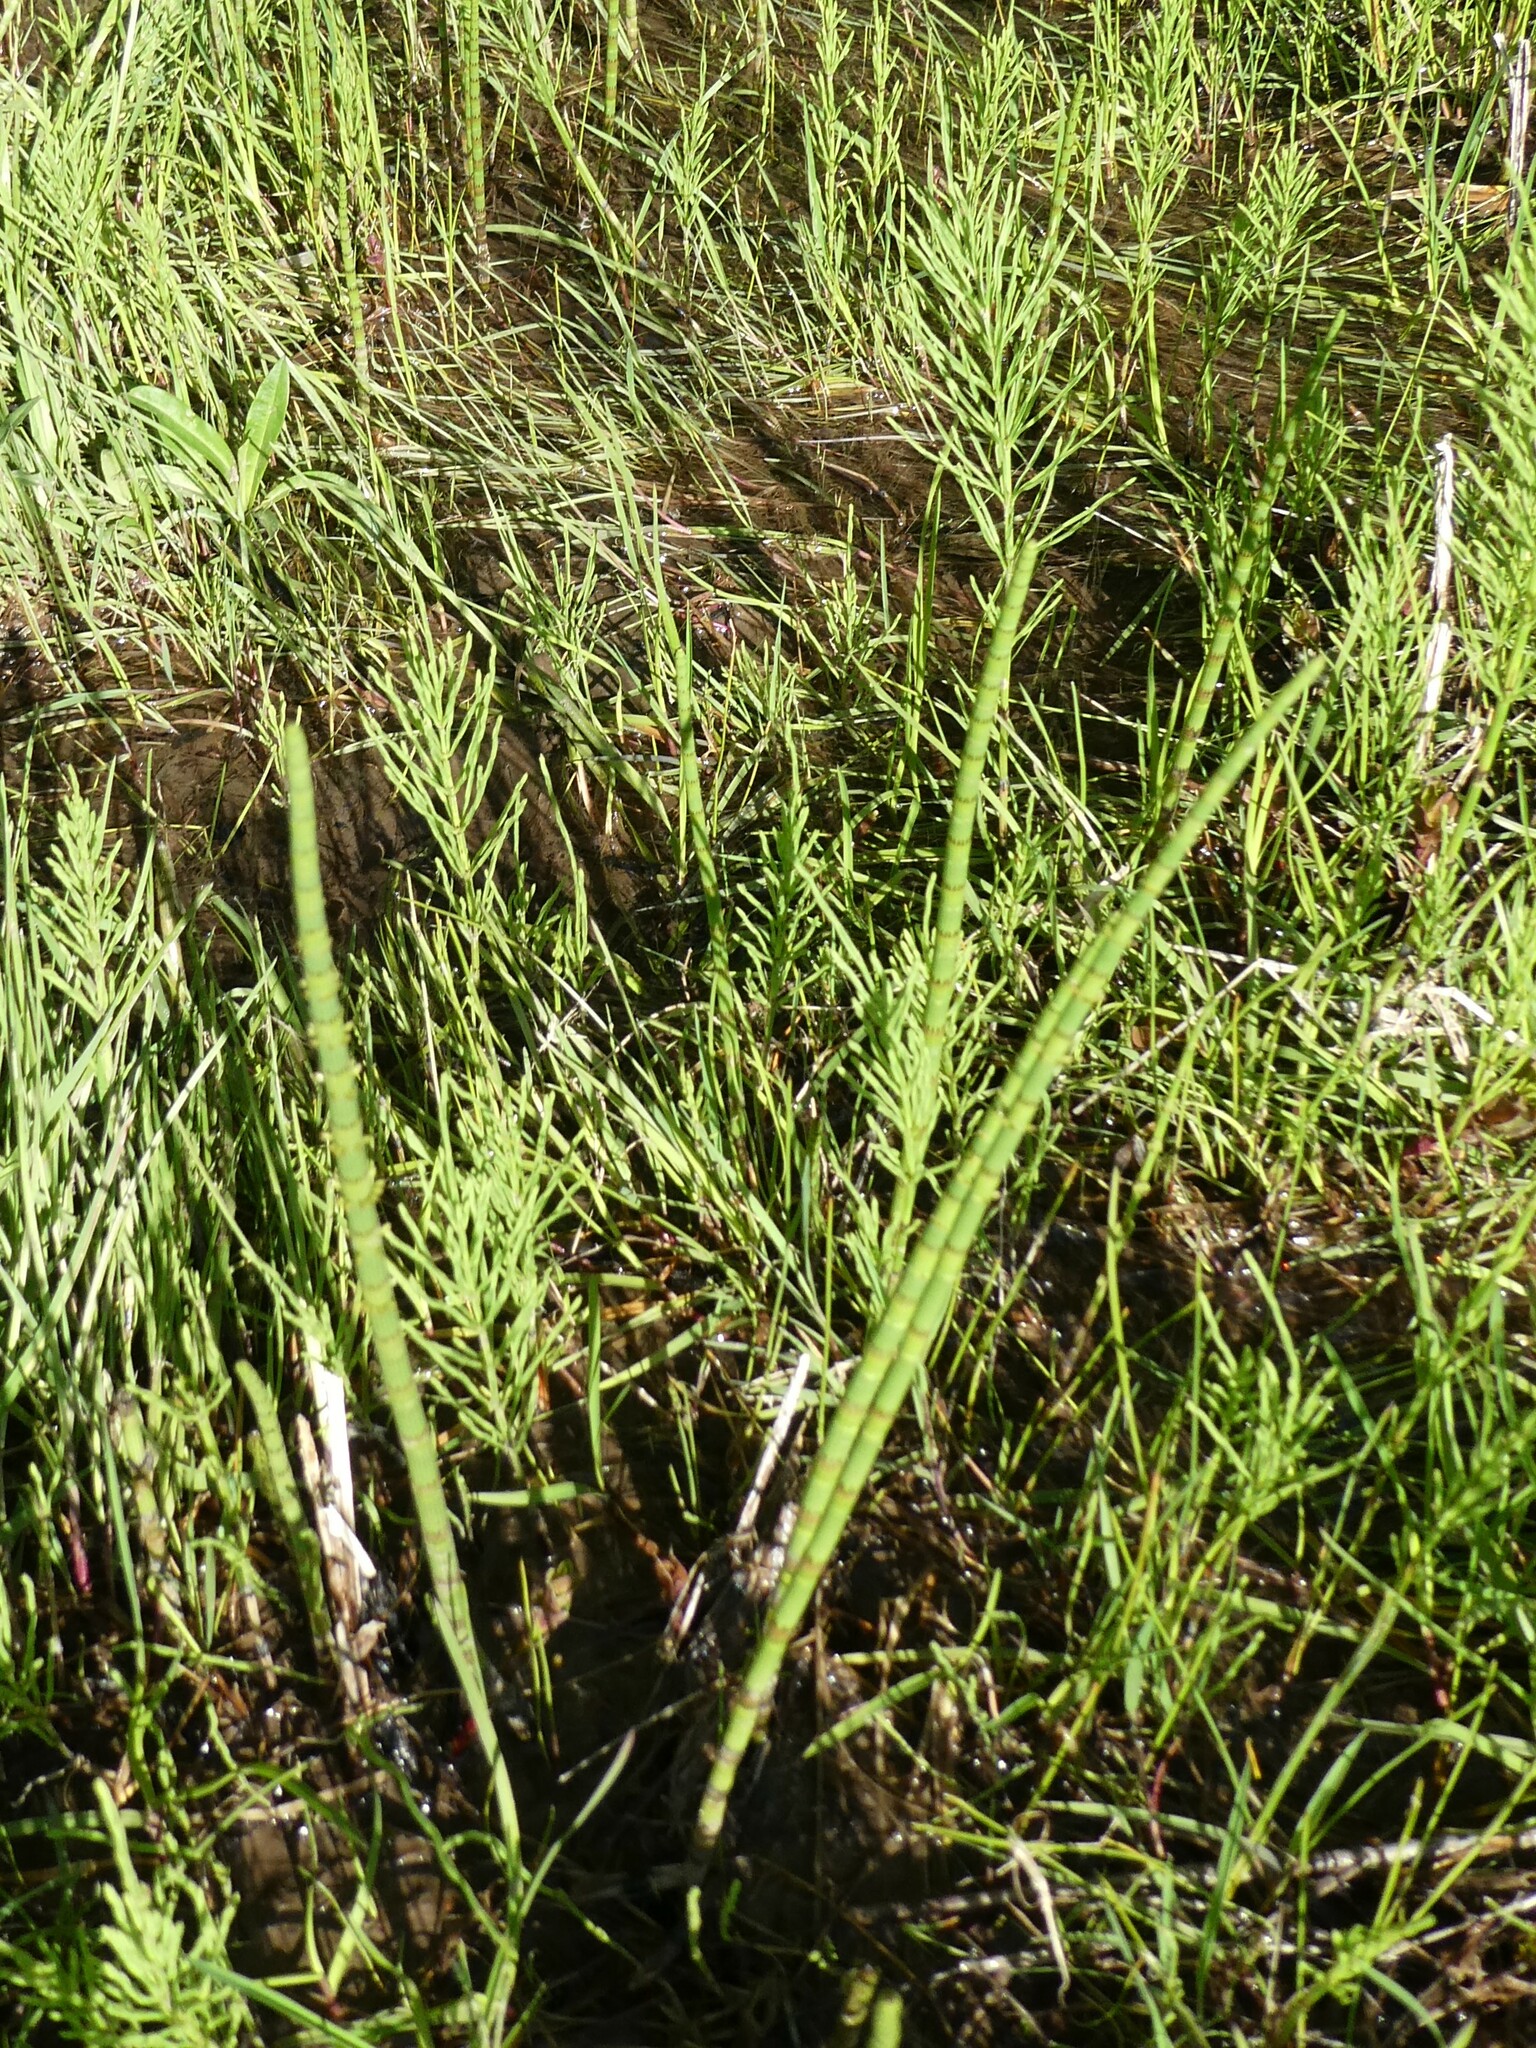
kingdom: Plantae
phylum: Tracheophyta
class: Polypodiopsida
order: Equisetales
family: Equisetaceae
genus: Equisetum
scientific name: Equisetum fluviatile
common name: Water horsetail
